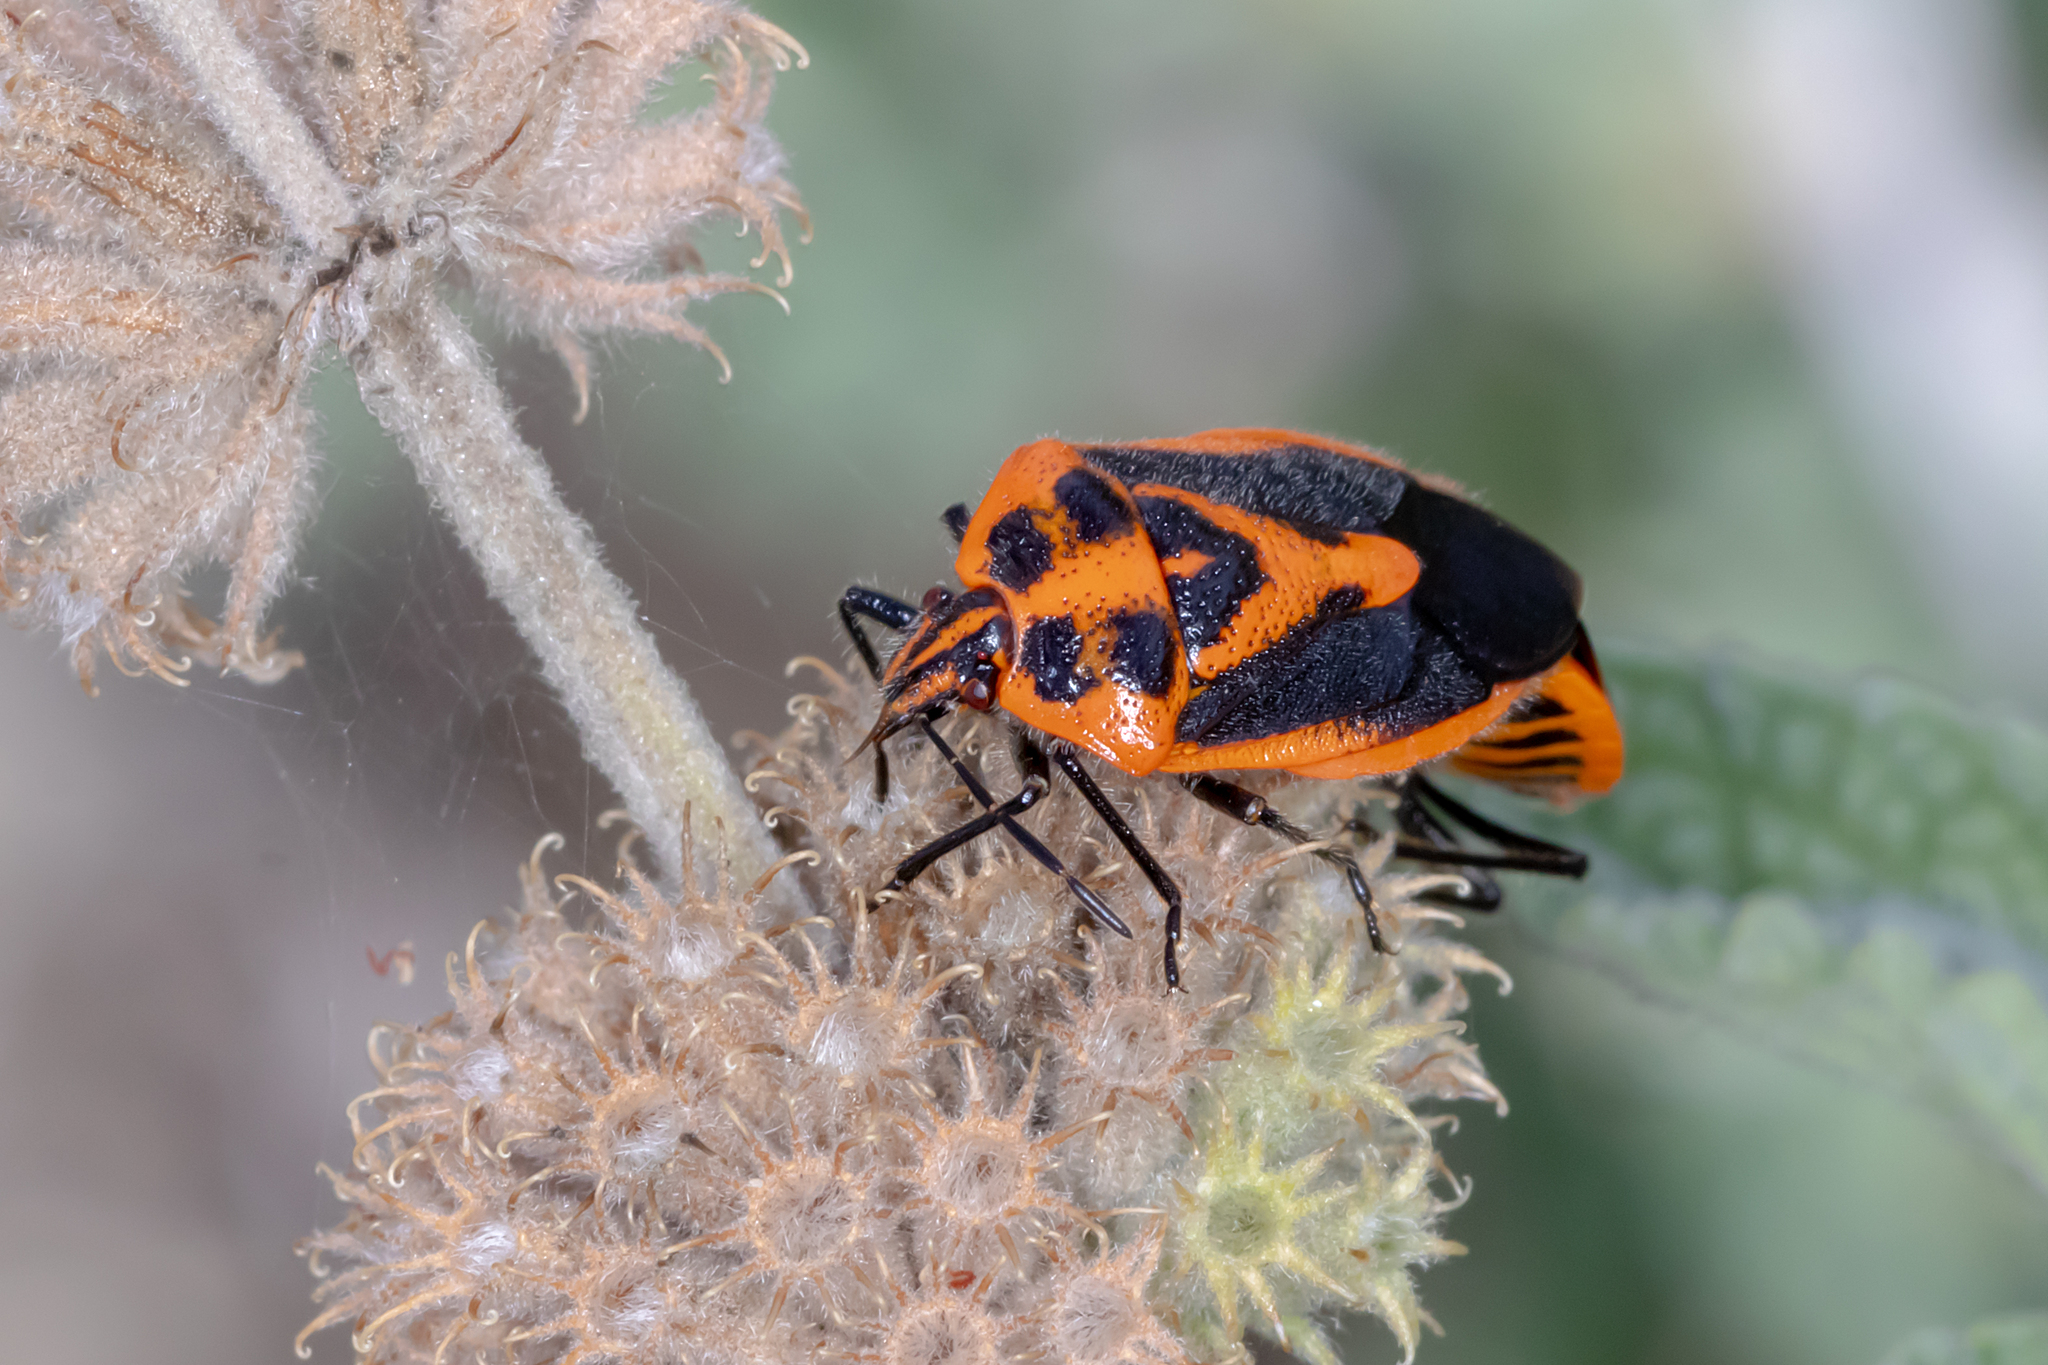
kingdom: Animalia
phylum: Arthropoda
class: Insecta
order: Hemiptera
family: Pentatomidae
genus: Agonoscelis
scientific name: Agonoscelis rutila
